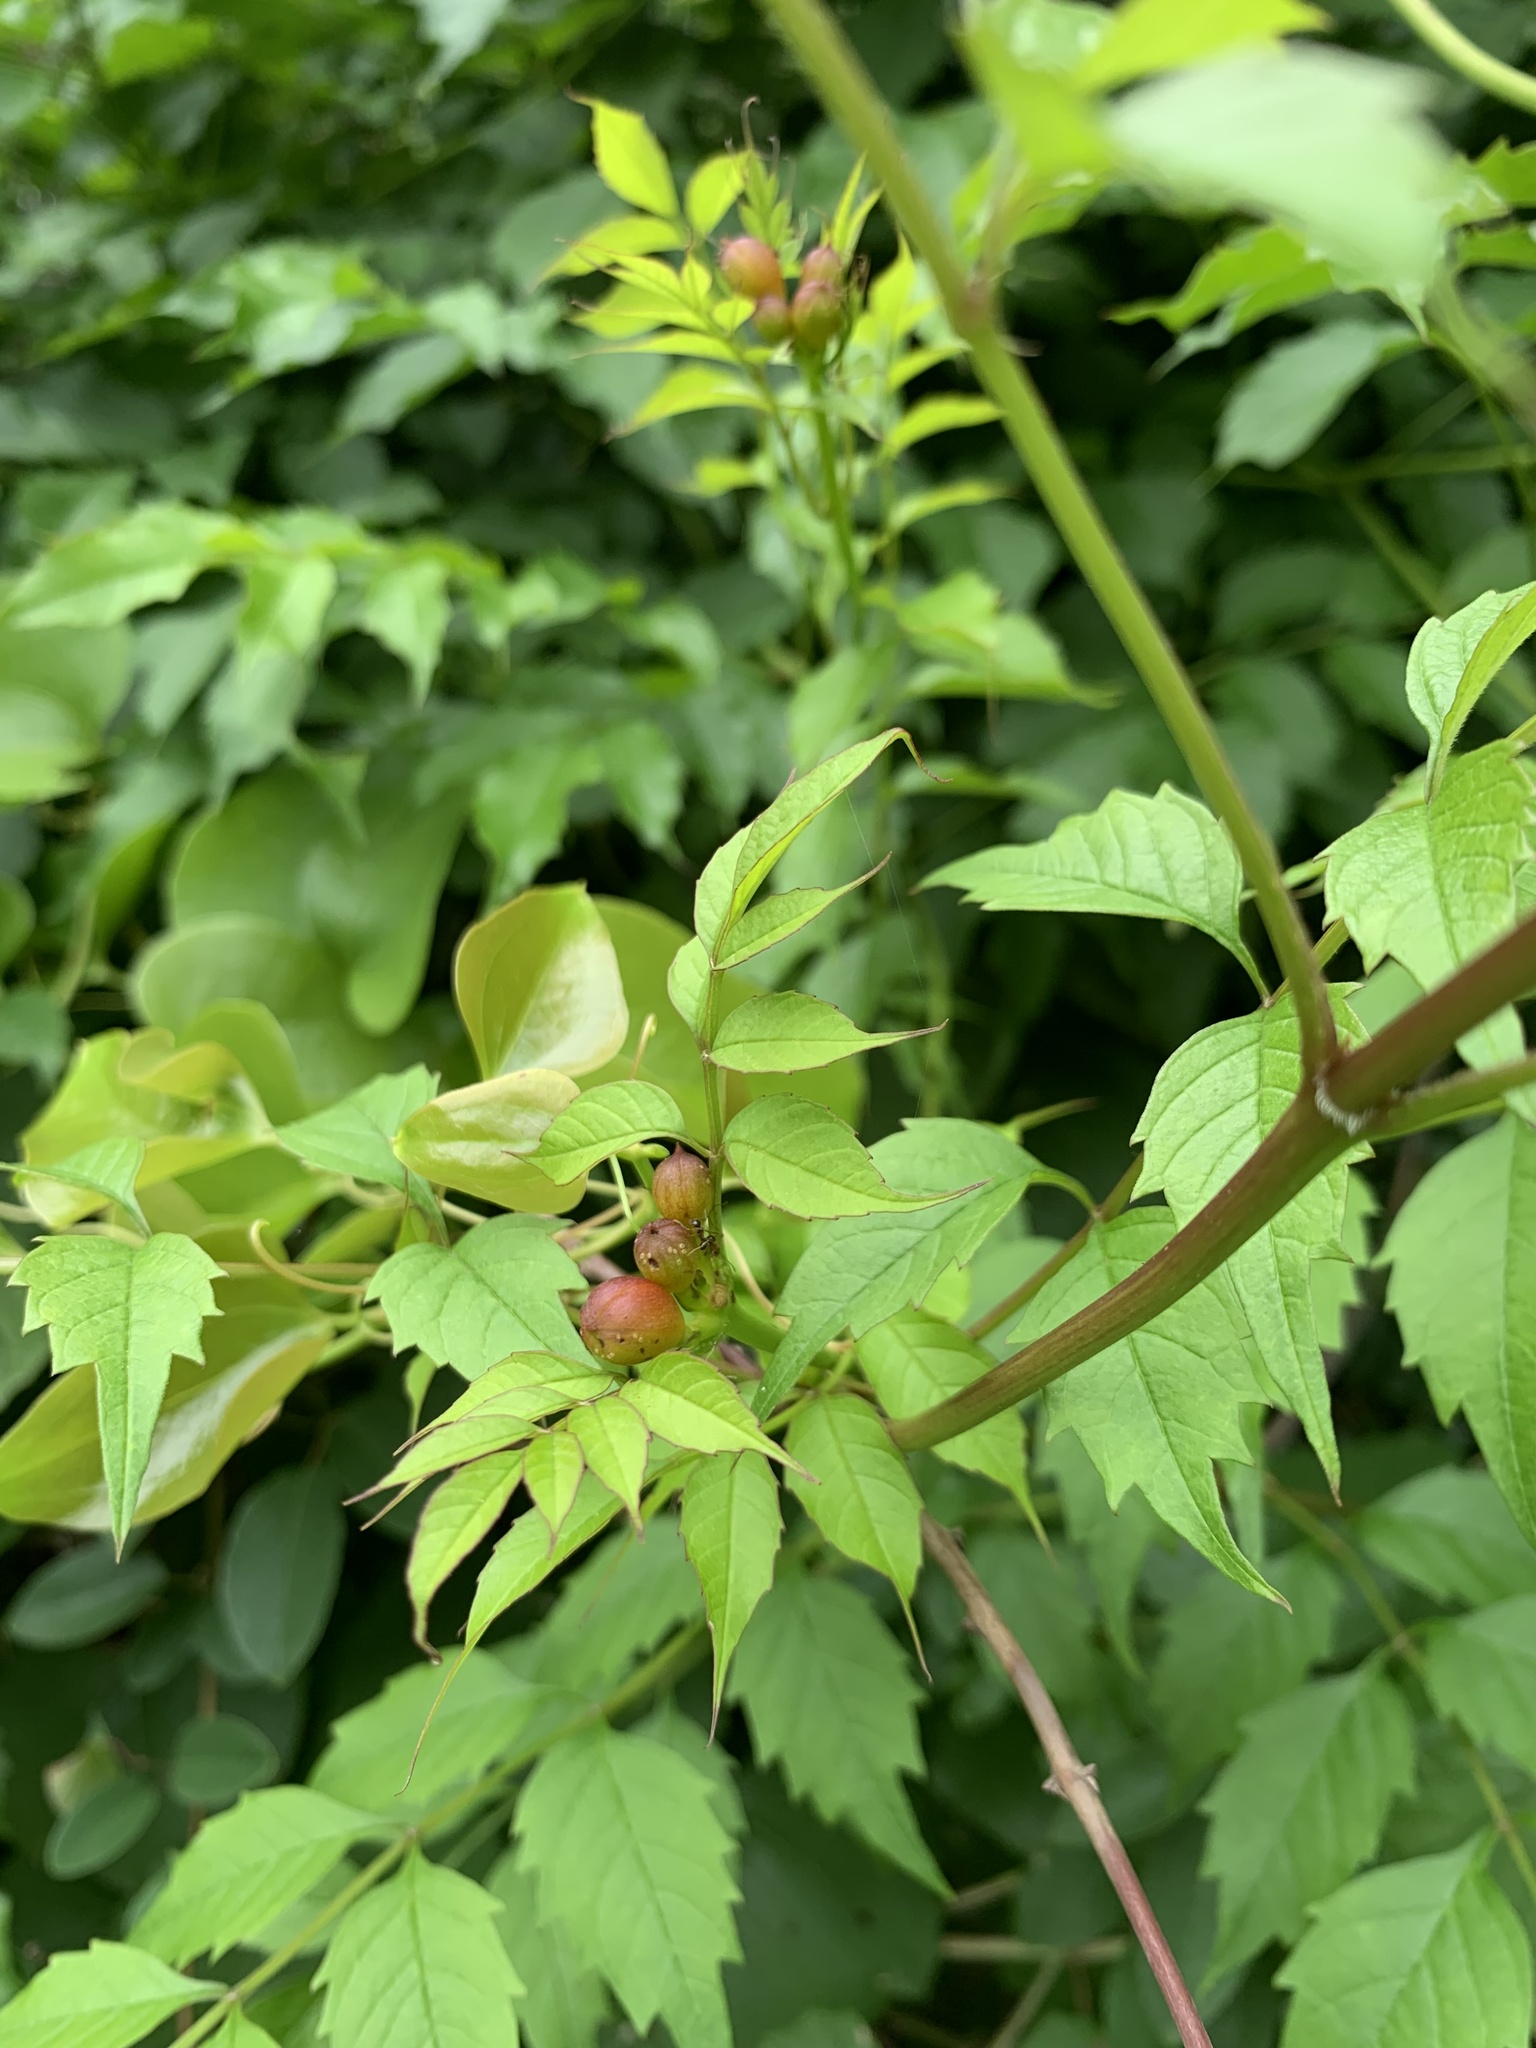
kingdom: Plantae
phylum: Tracheophyta
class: Magnoliopsida
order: Lamiales
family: Bignoniaceae
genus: Campsis
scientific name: Campsis radicans
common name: Trumpet-creeper
